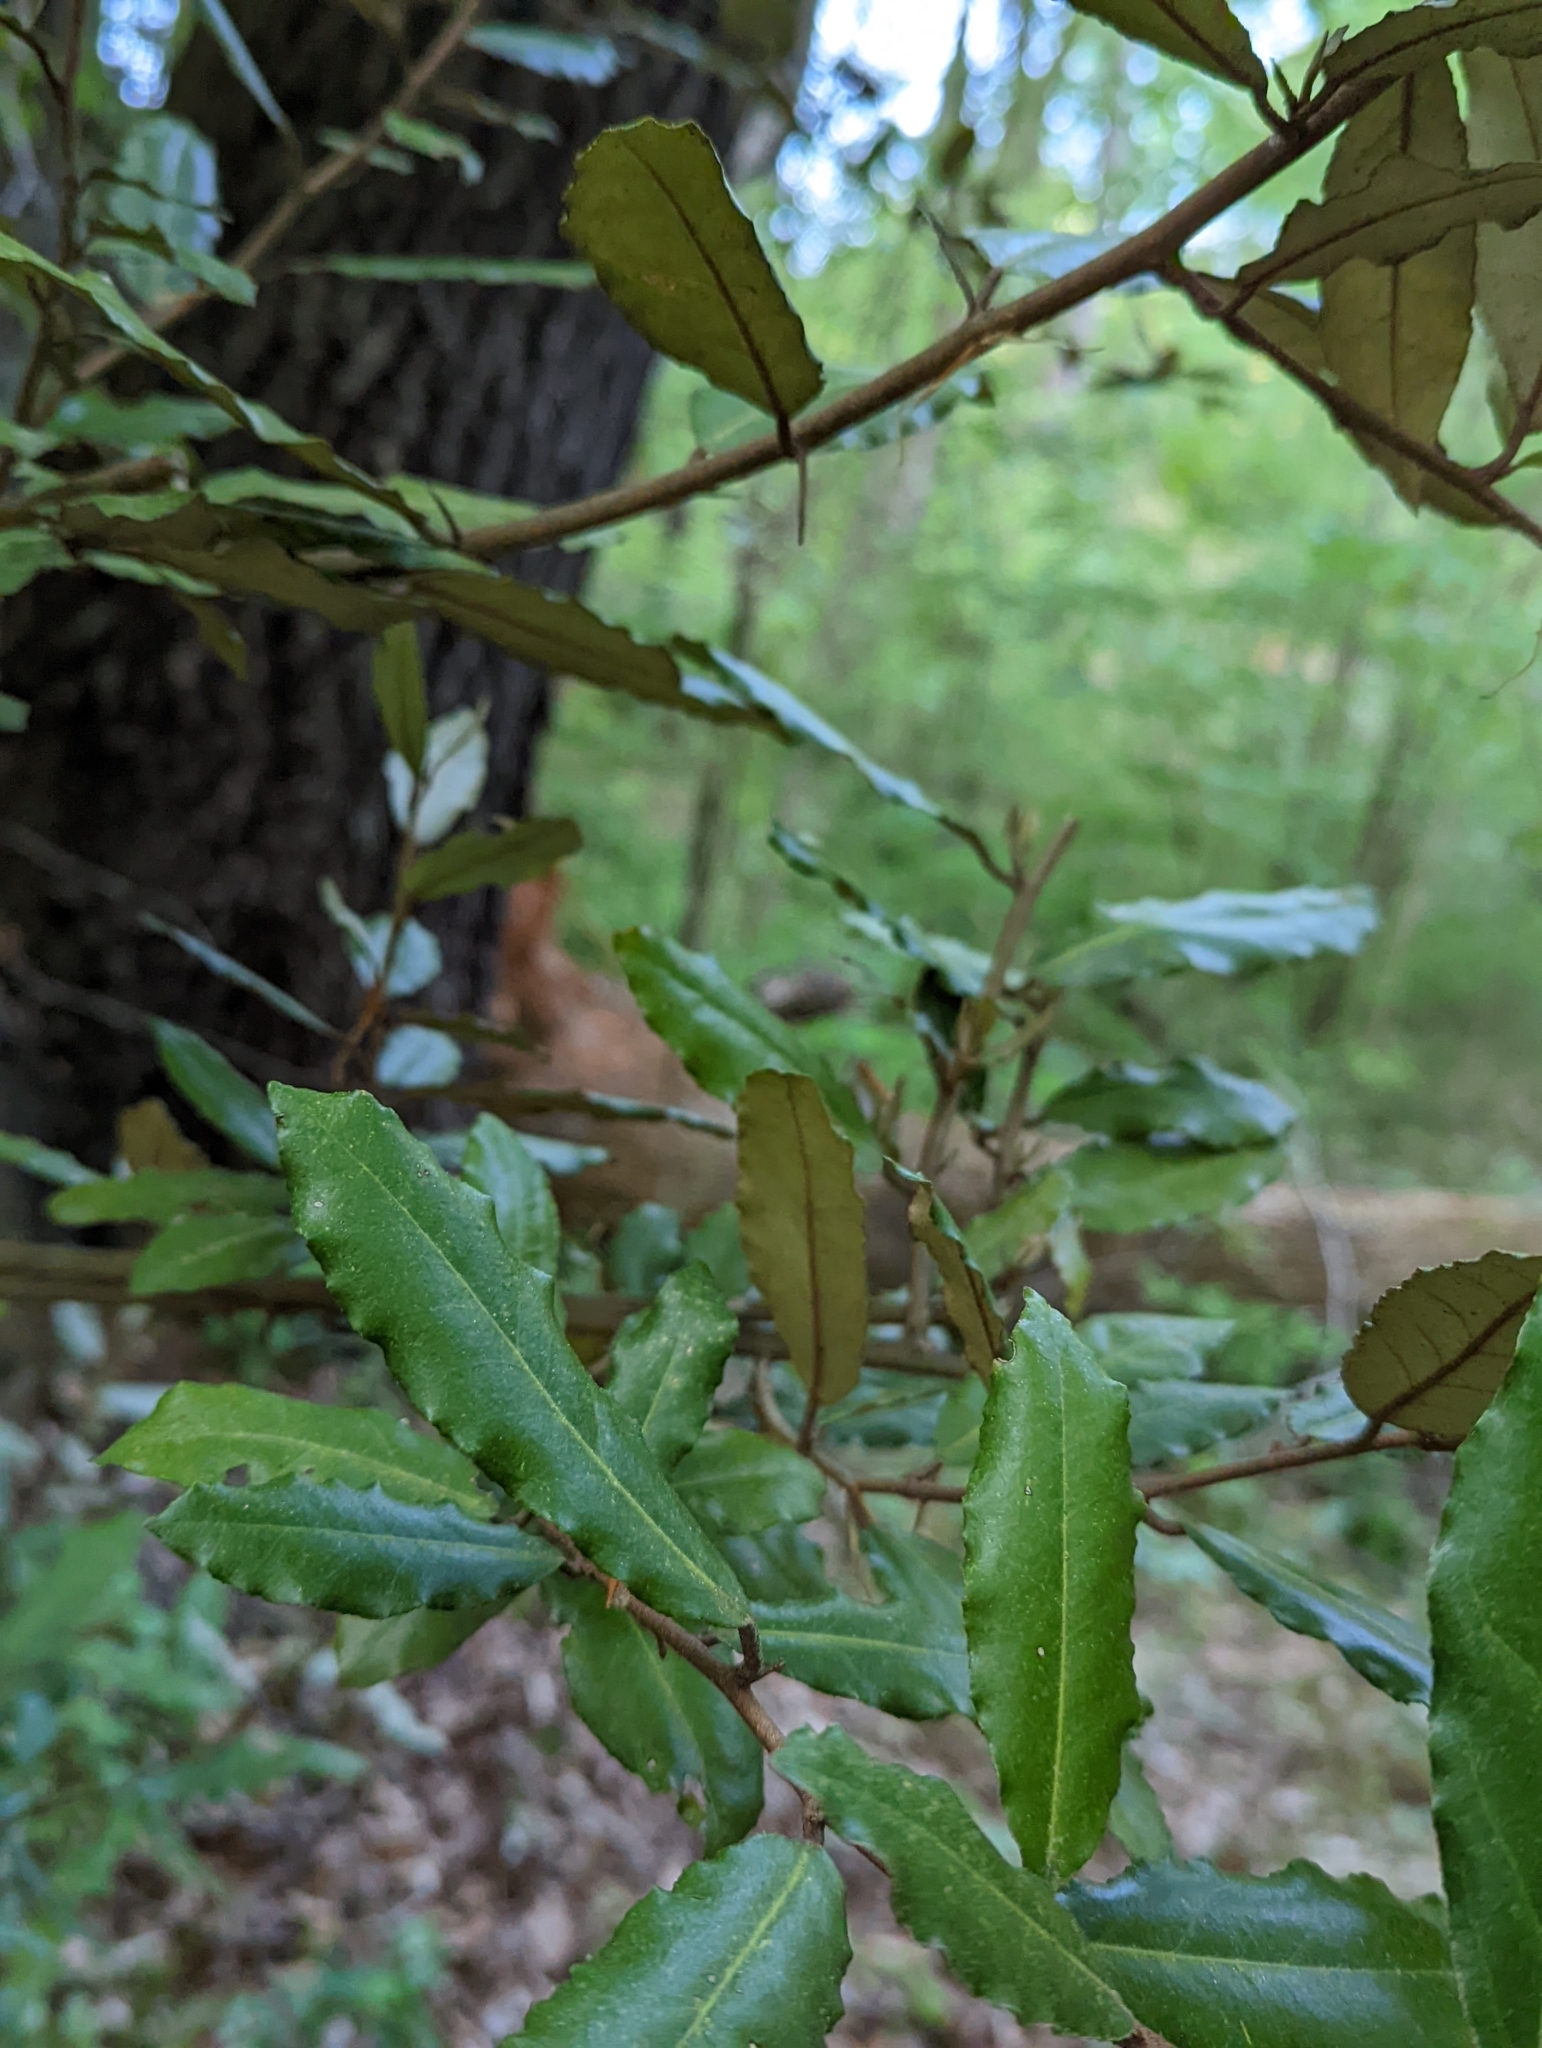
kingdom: Plantae
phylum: Tracheophyta
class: Magnoliopsida
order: Rosales
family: Elaeagnaceae
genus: Elaeagnus
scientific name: Elaeagnus pungens
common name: Spiny oleaster
